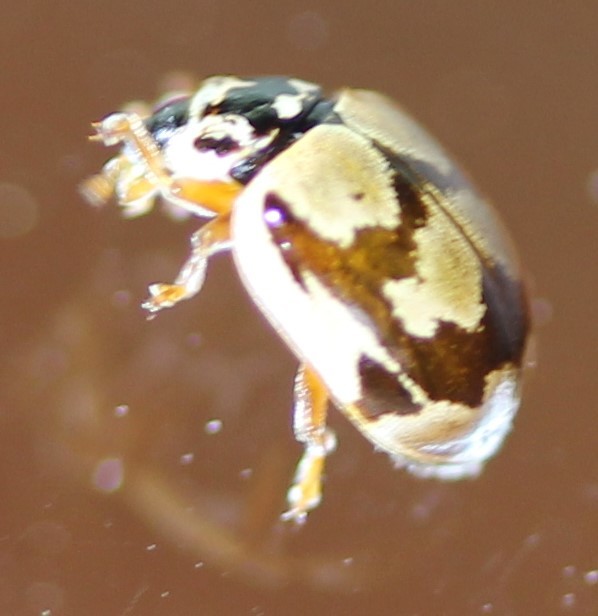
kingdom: Animalia
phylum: Arthropoda
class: Insecta
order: Coleoptera
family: Coccinellidae
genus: Mulsantina
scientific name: Mulsantina picta
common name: Painted ladybird
